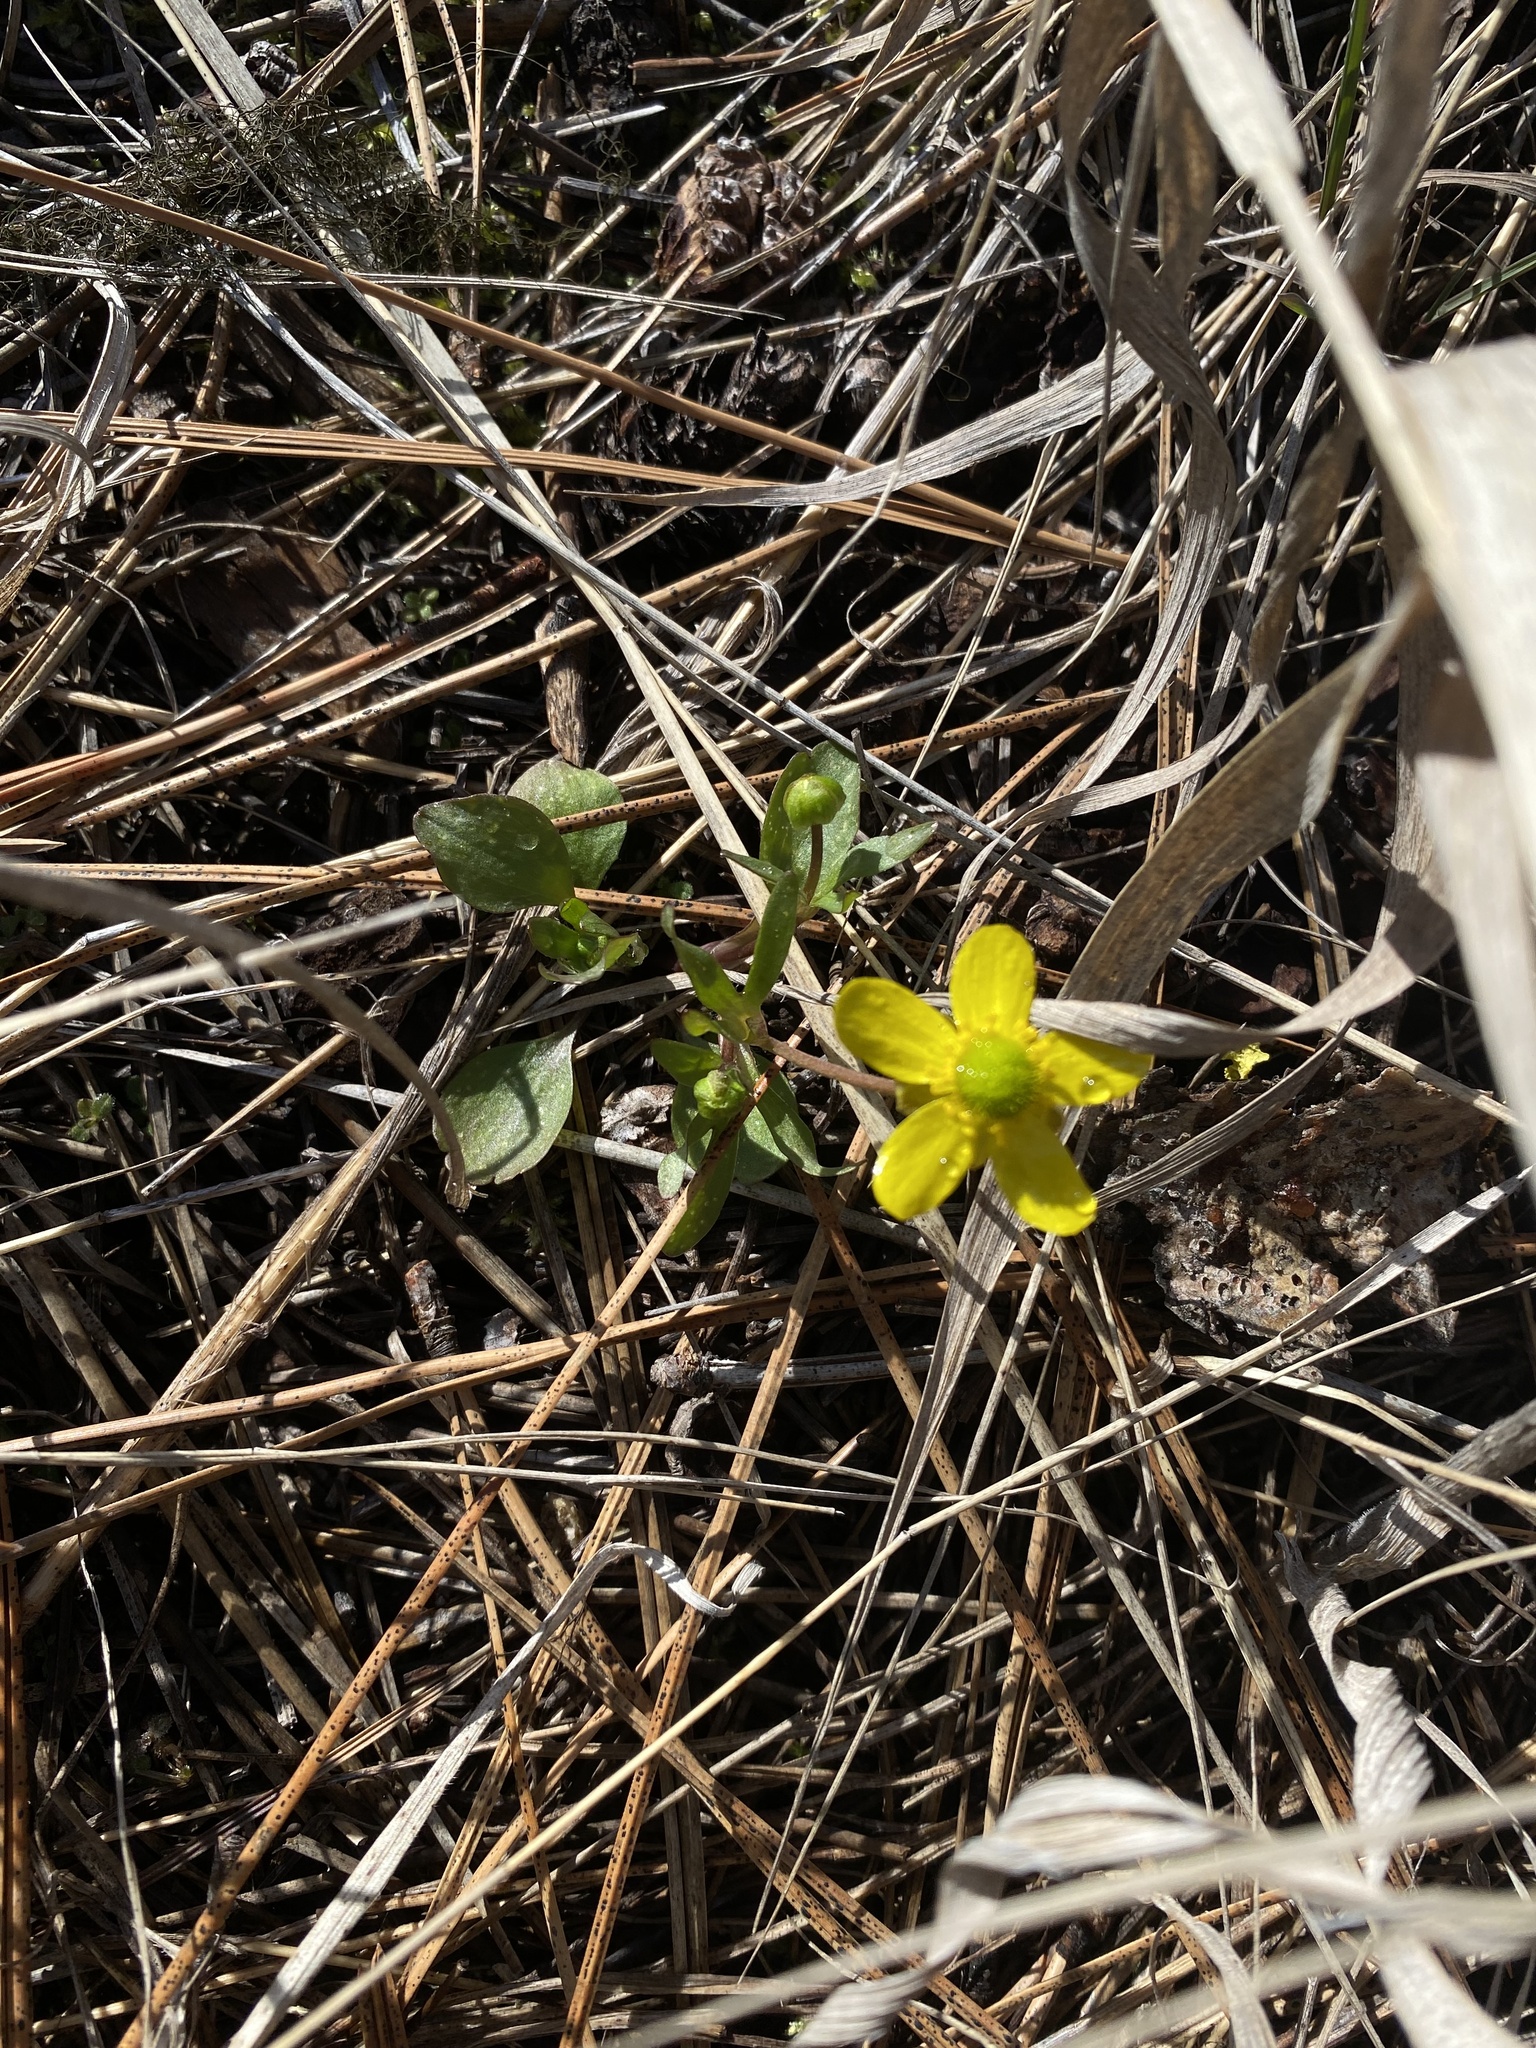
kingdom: Plantae
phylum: Tracheophyta
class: Magnoliopsida
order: Ranunculales
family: Ranunculaceae
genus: Ranunculus
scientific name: Ranunculus glaberrimus
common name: Sagebrush buttercup
